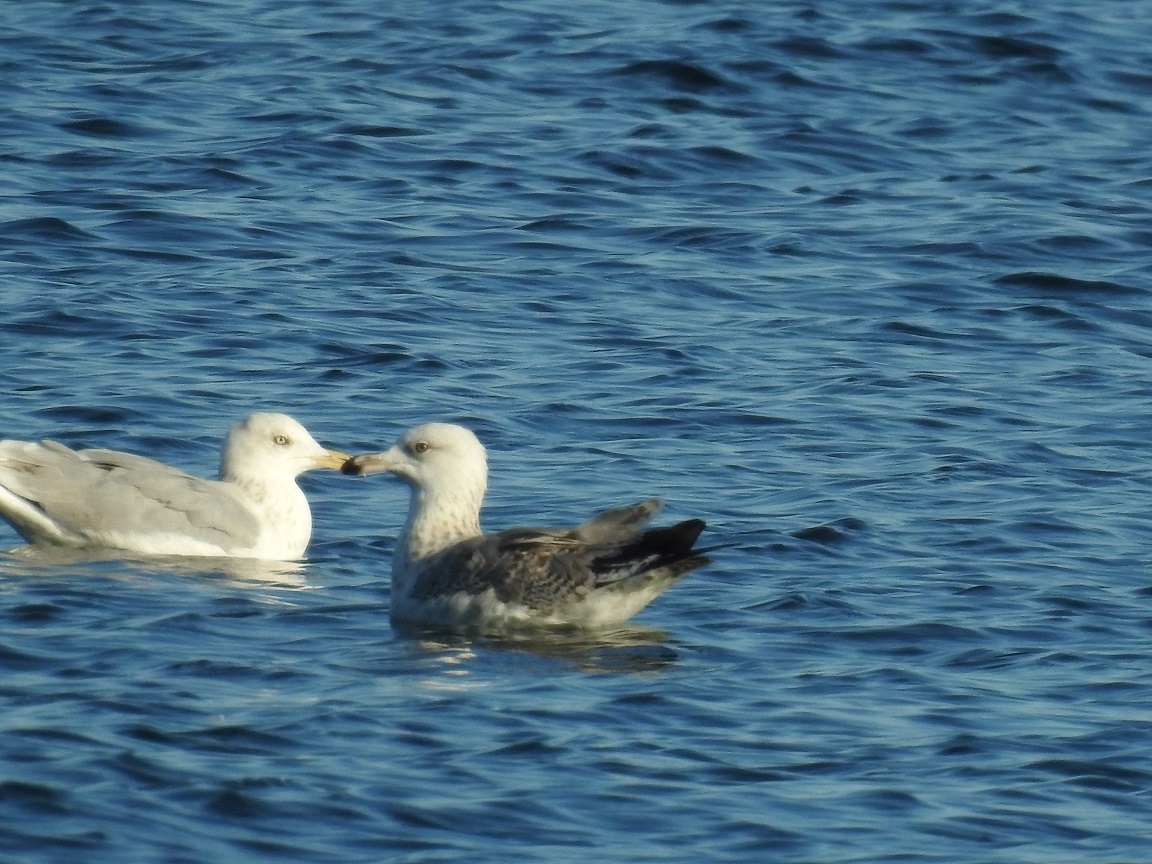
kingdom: Animalia
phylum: Chordata
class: Aves
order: Charadriiformes
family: Laridae
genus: Larus
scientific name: Larus cachinnans
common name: Caspian gull
